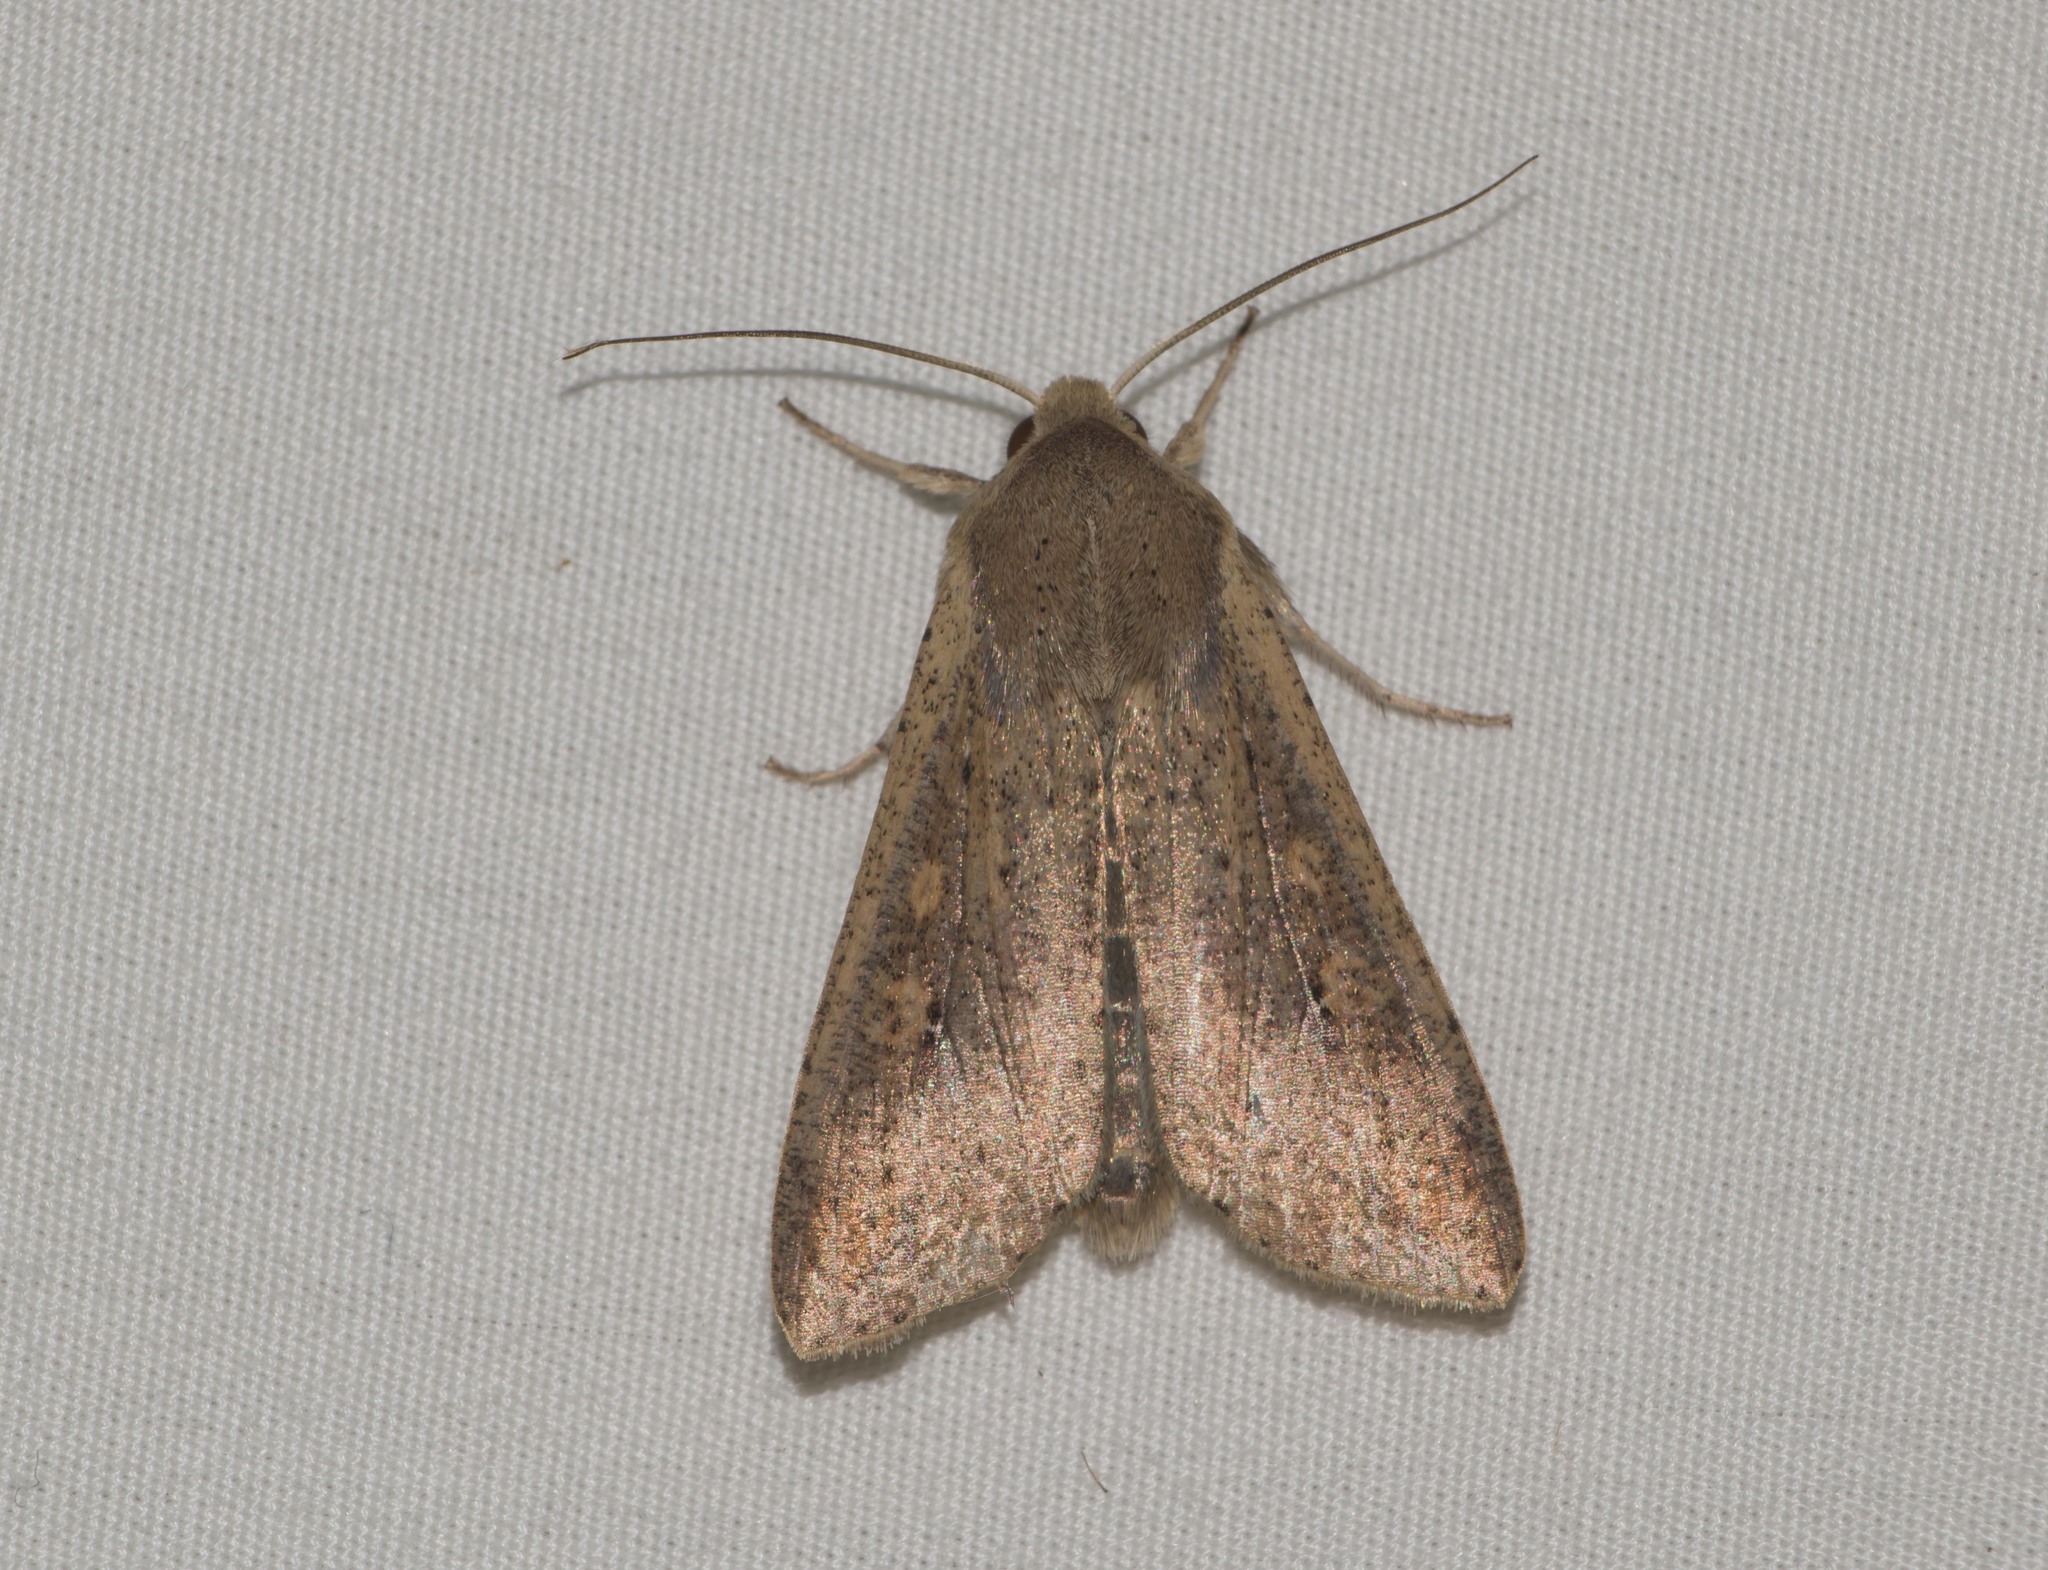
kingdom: Animalia
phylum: Arthropoda
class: Insecta
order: Lepidoptera
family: Noctuidae
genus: Mythimna
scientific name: Mythimna unipuncta
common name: White-speck
